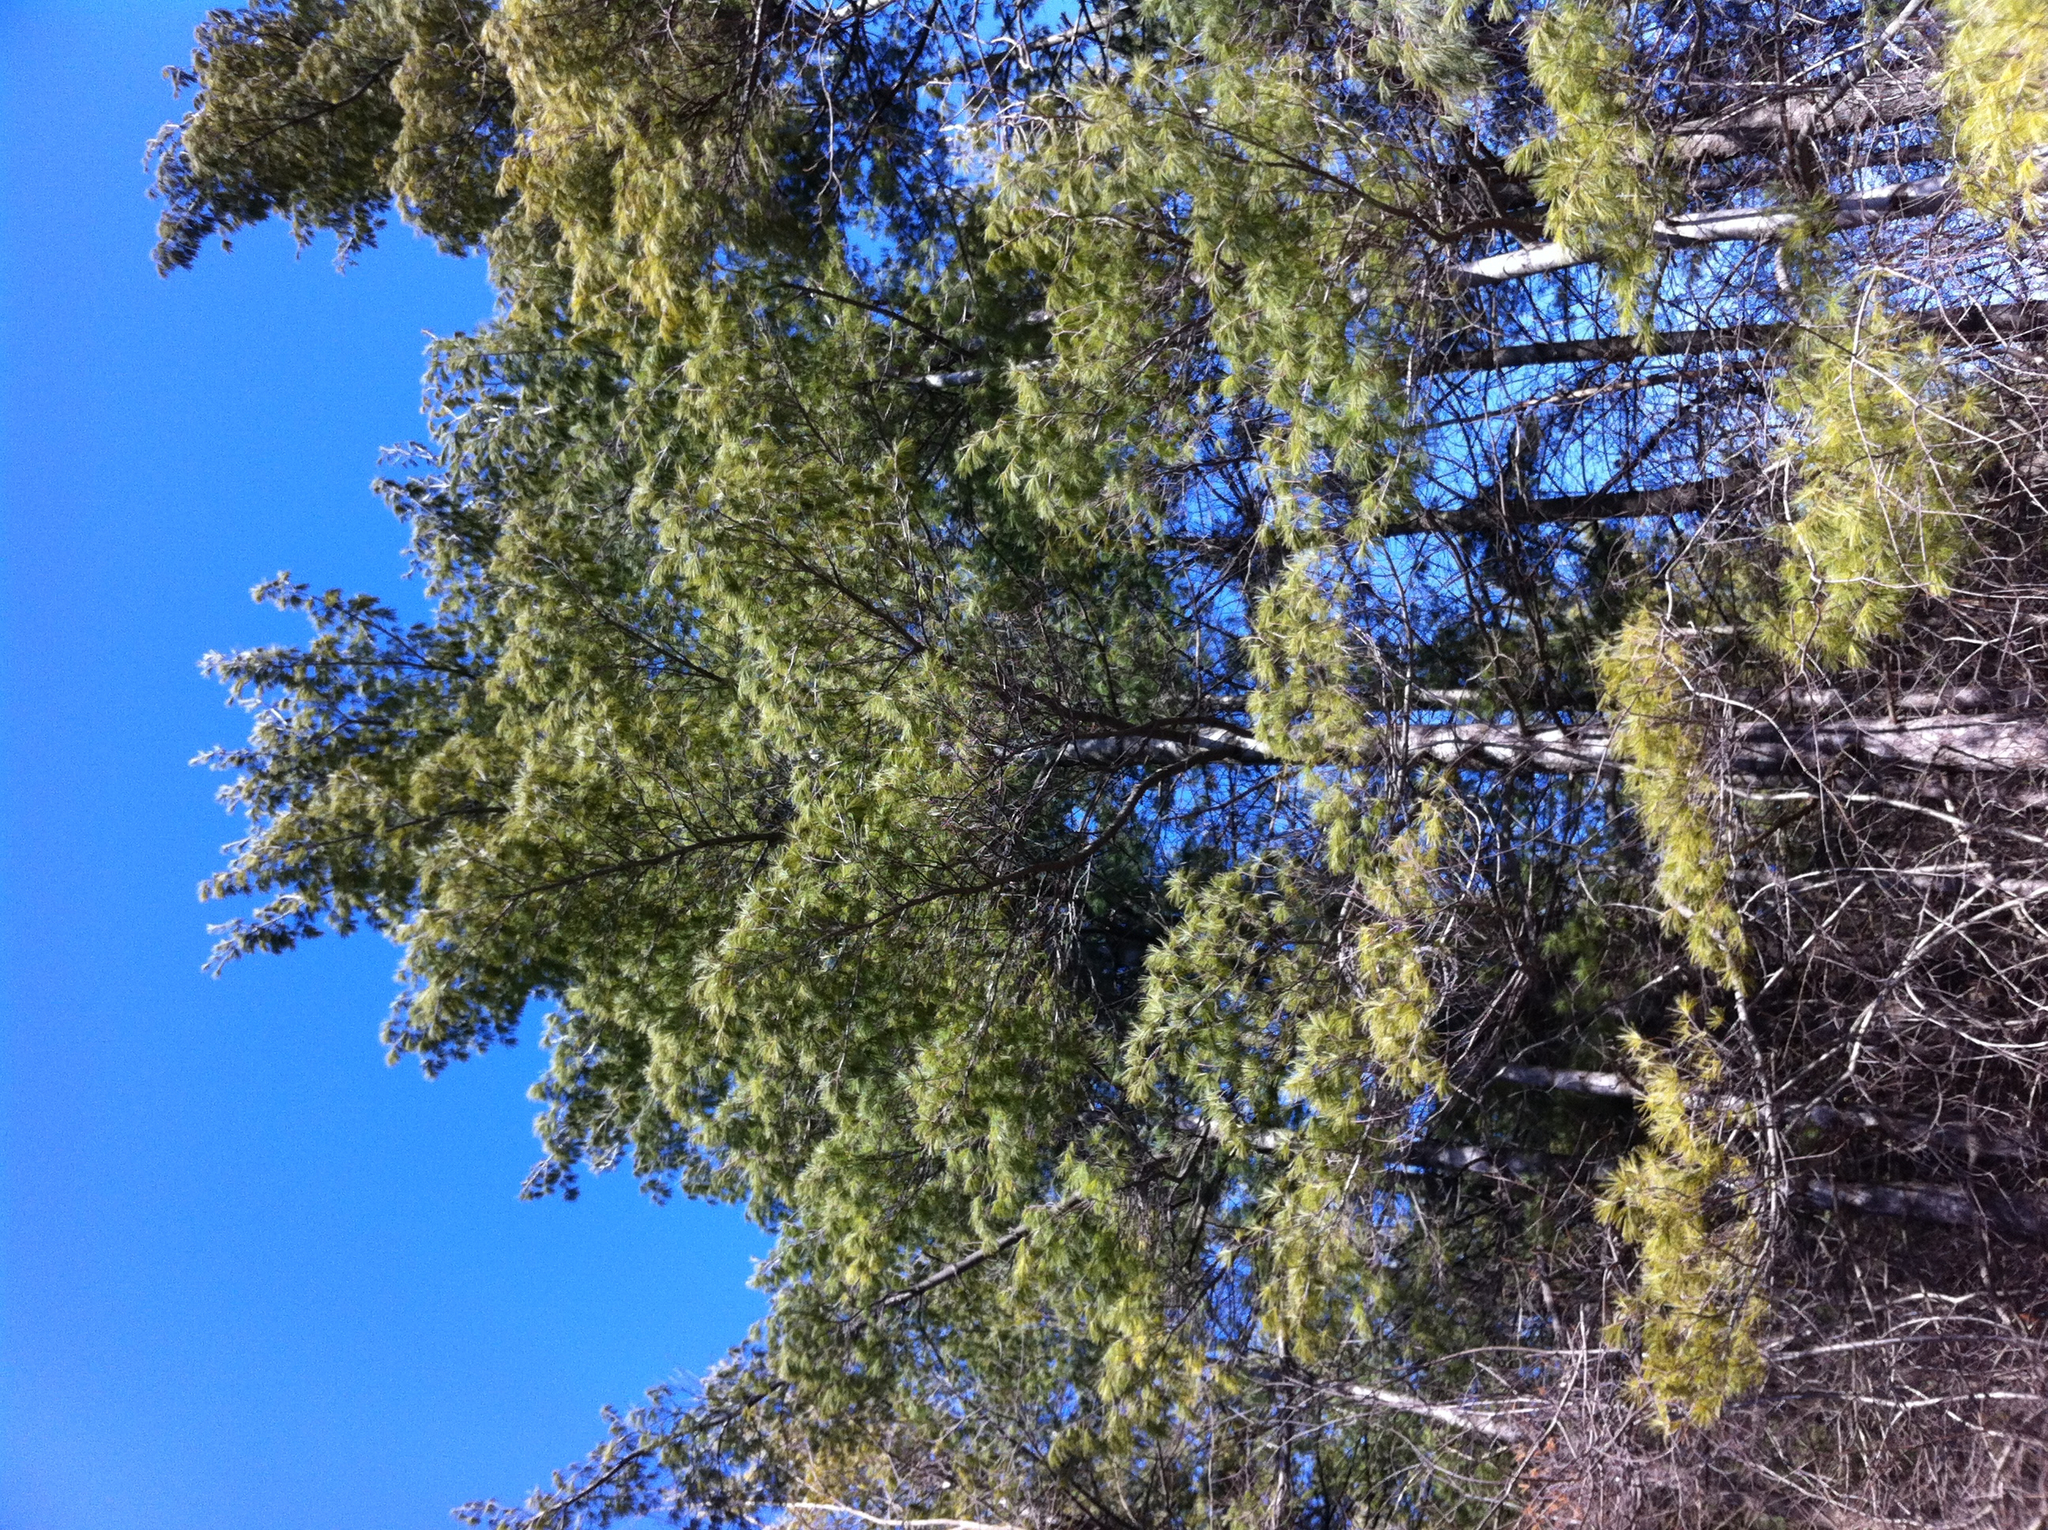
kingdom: Plantae
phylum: Tracheophyta
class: Pinopsida
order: Pinales
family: Pinaceae
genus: Pinus
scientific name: Pinus strobus
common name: Weymouth pine
